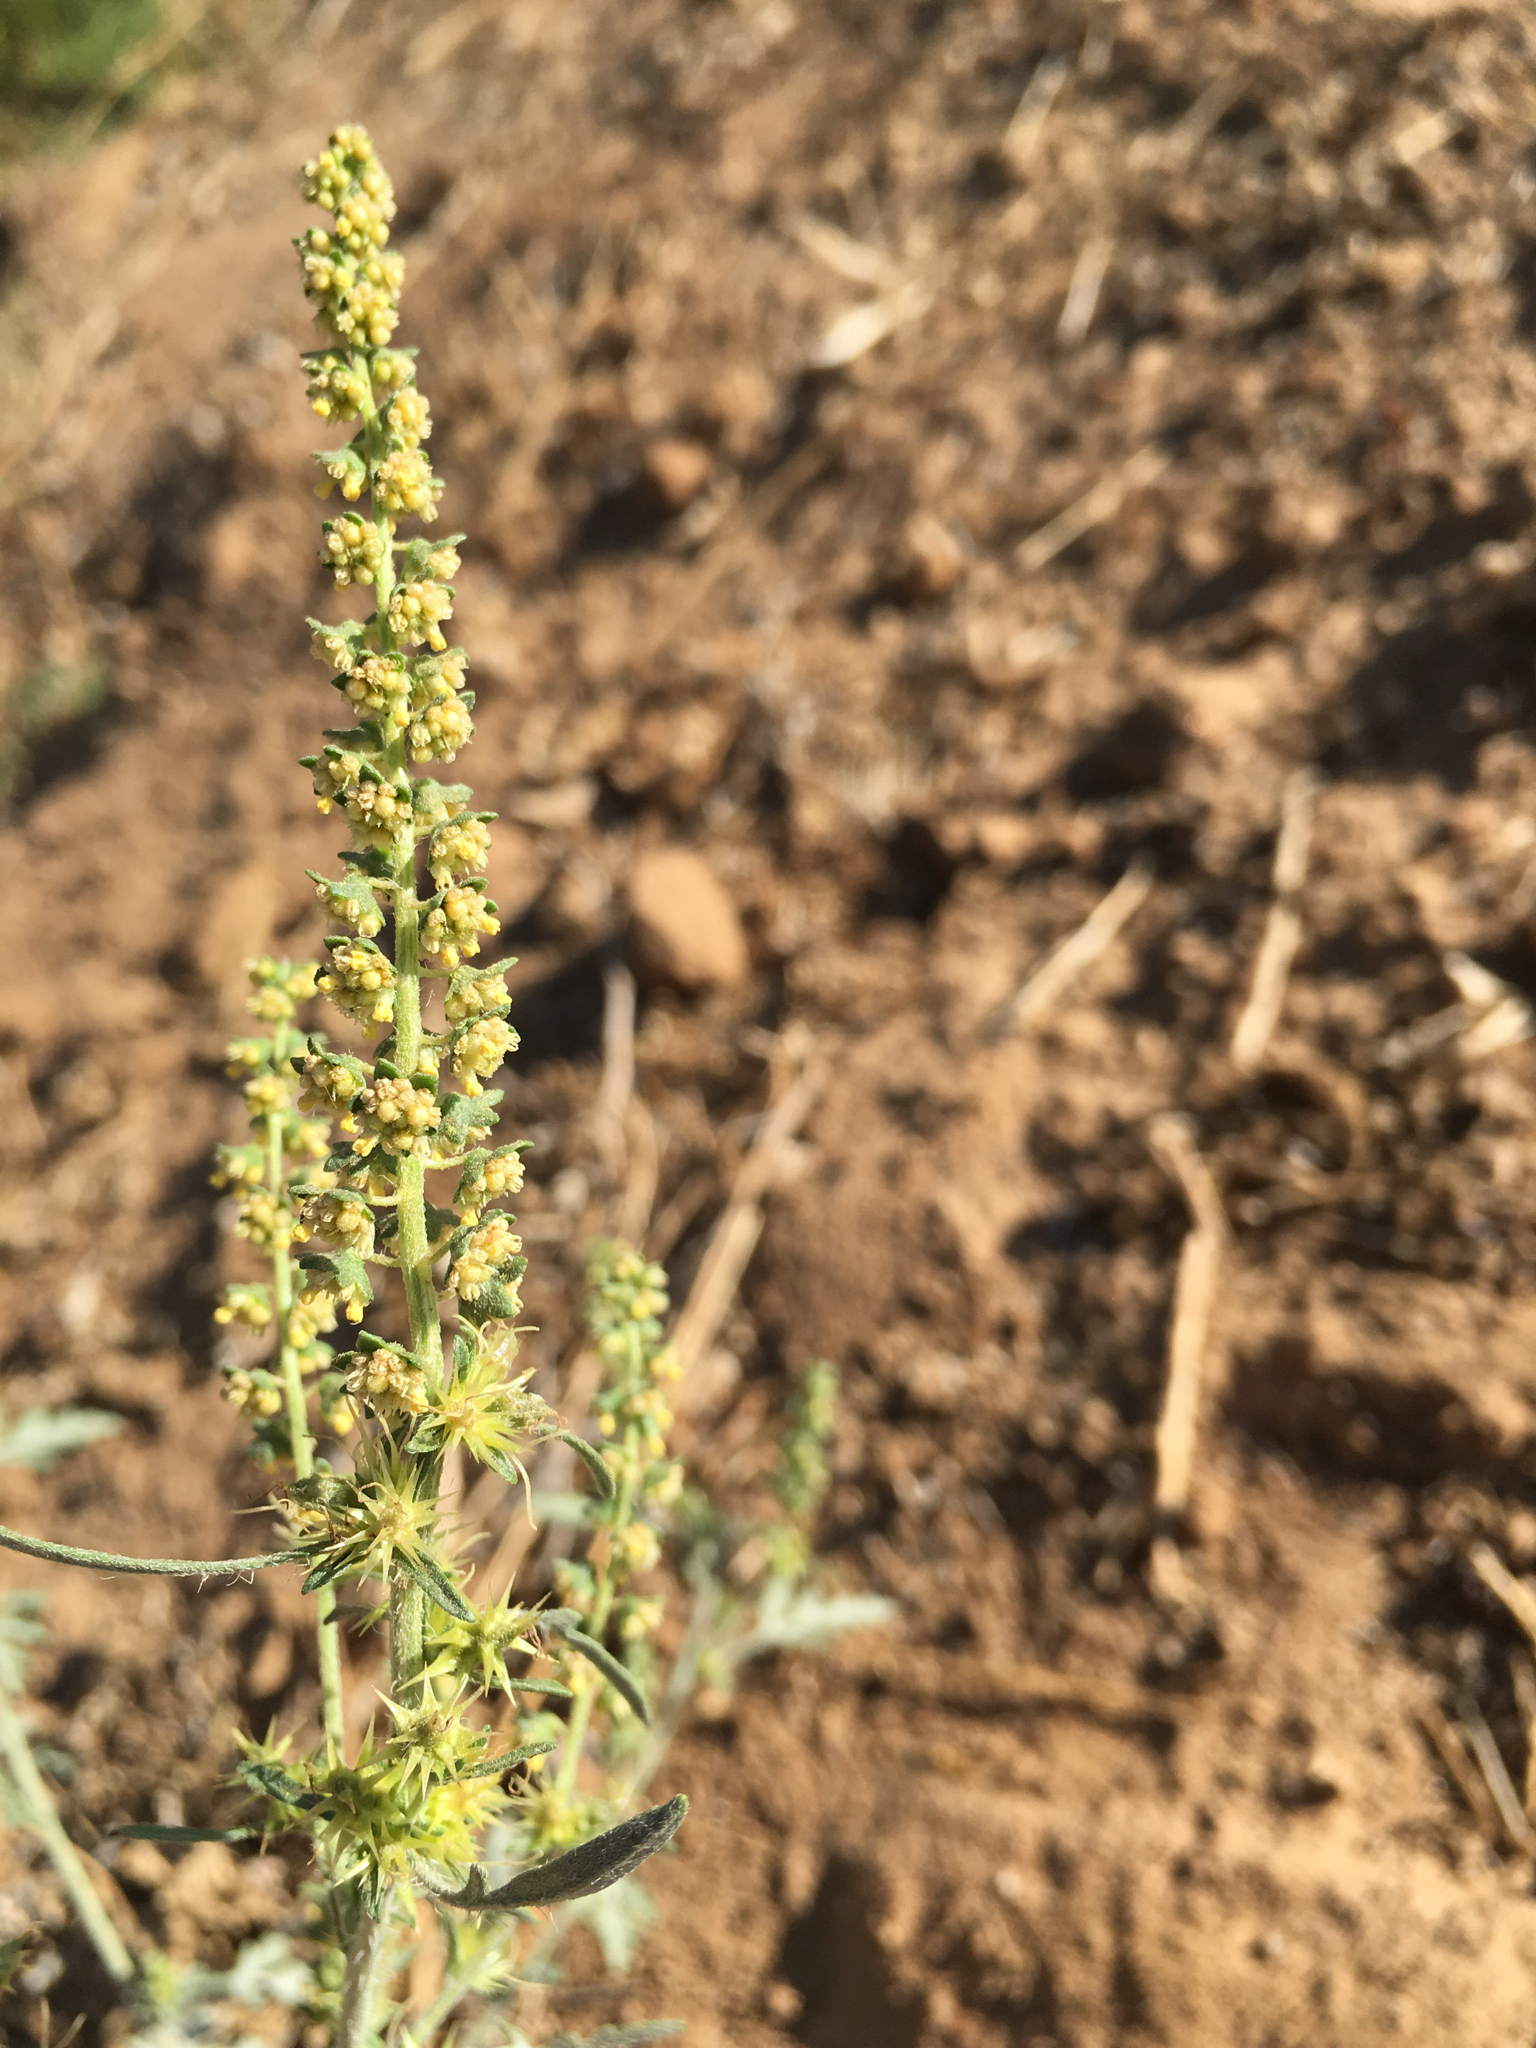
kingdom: Plantae
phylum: Tracheophyta
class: Magnoliopsida
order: Asterales
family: Asteraceae
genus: Ambrosia
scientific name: Ambrosia acanthicarpa
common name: Hooker's bur ragweed
